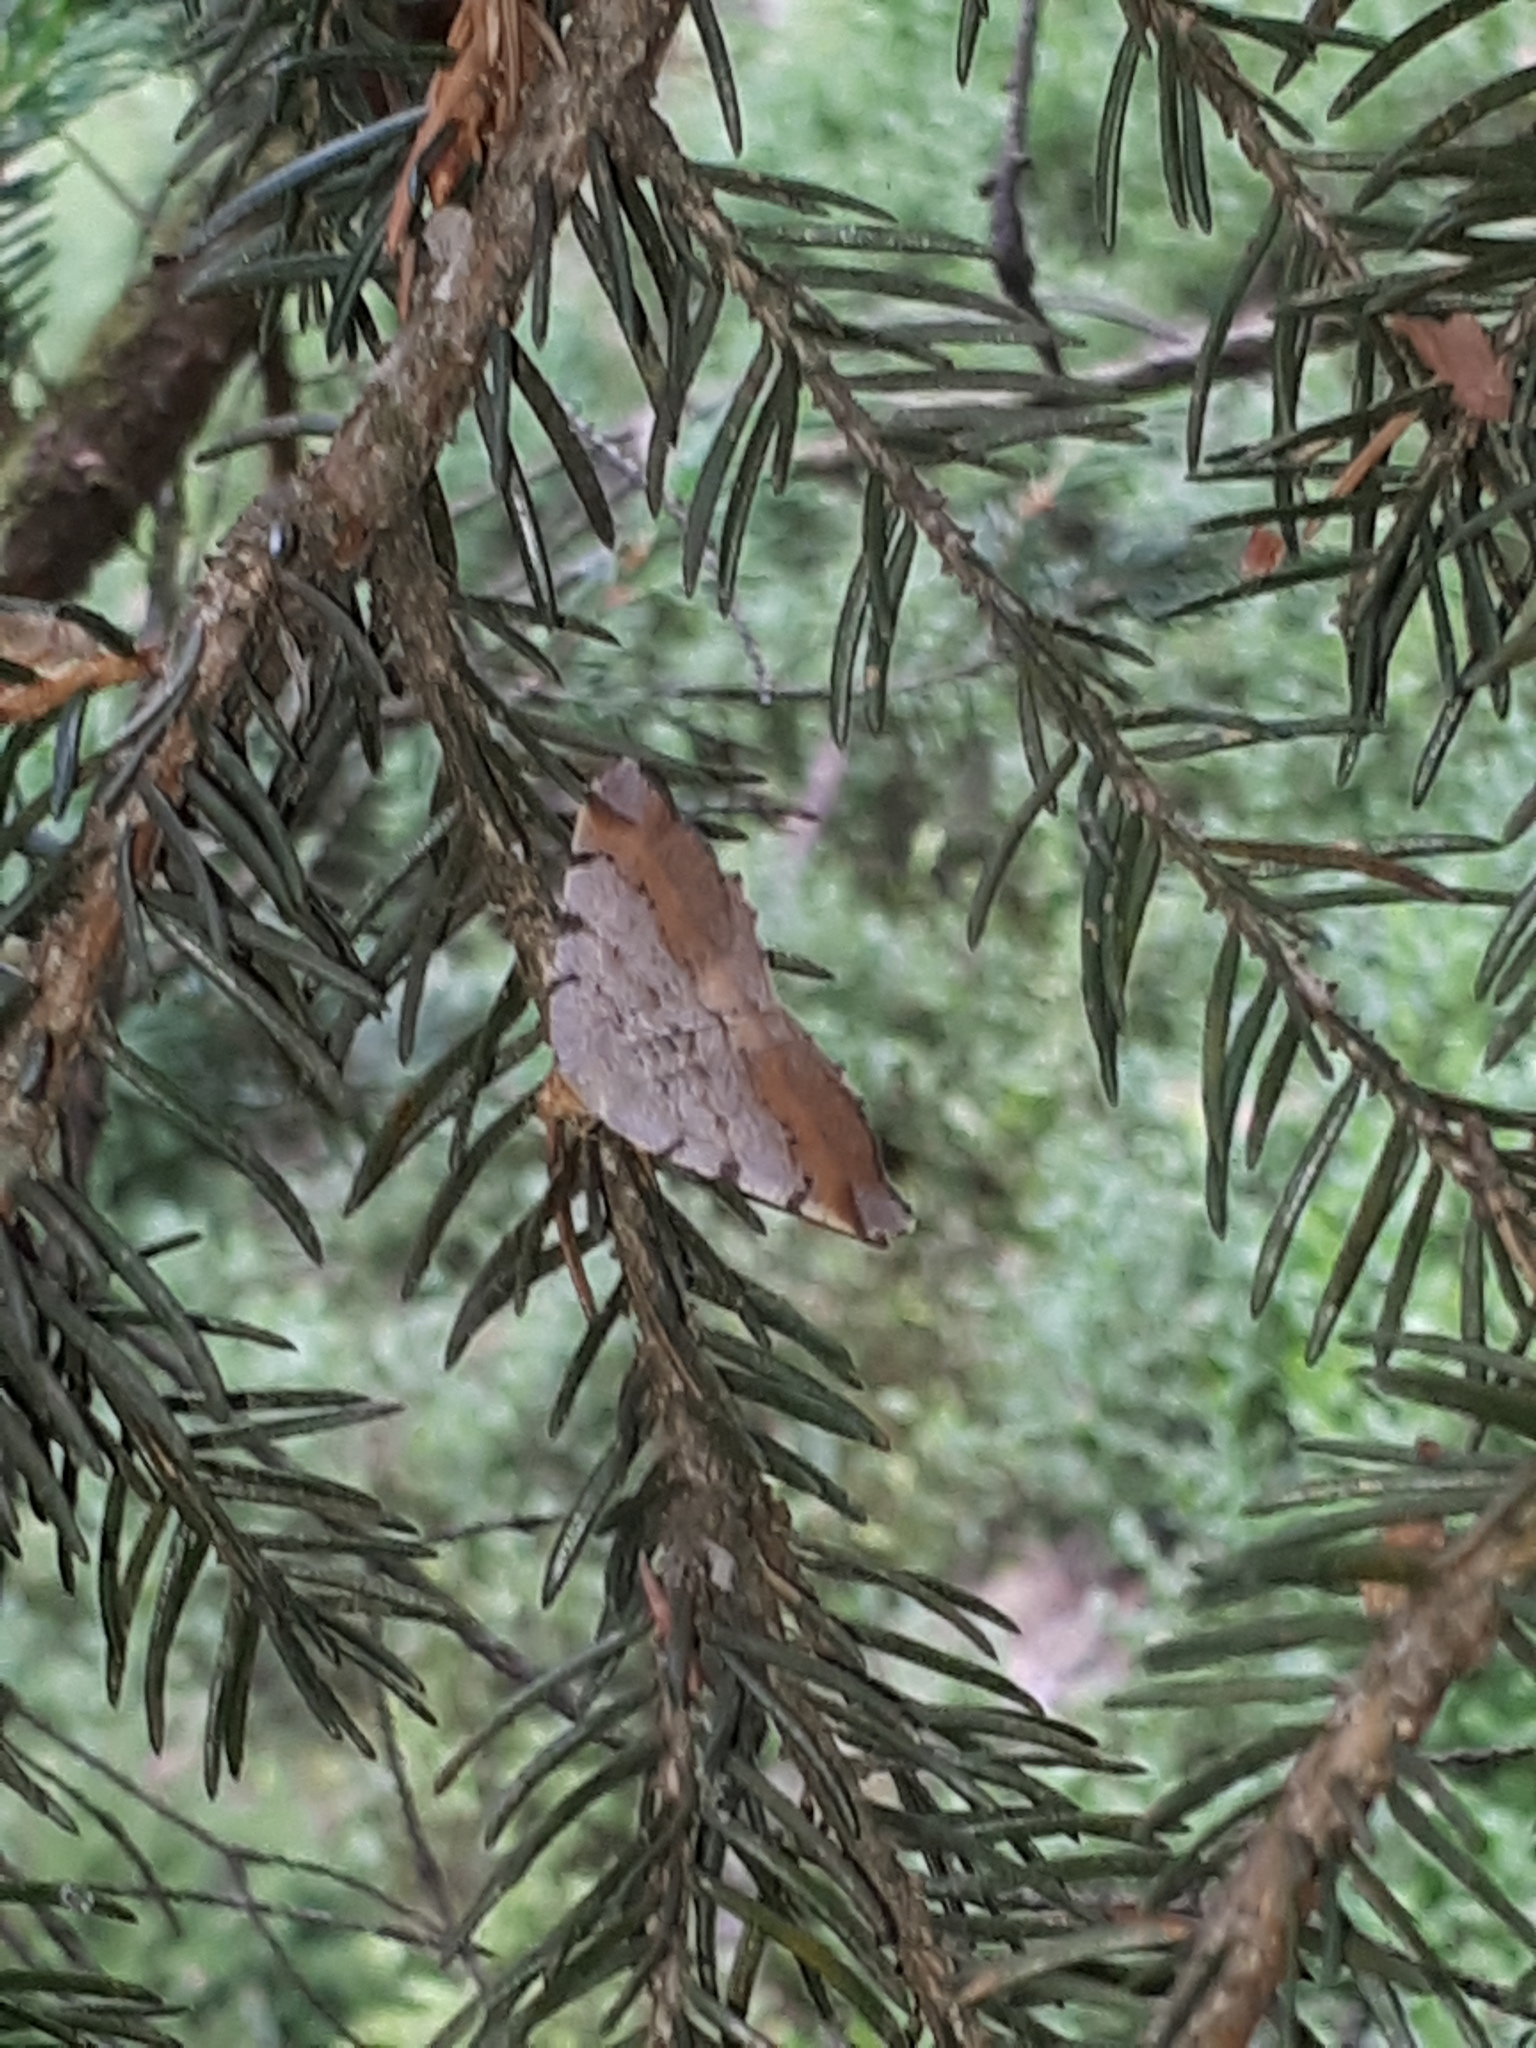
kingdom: Animalia
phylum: Arthropoda
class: Insecta
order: Lepidoptera
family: Geometridae
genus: Macaria
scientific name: Macaria liturata
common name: Tawny-barred angle
